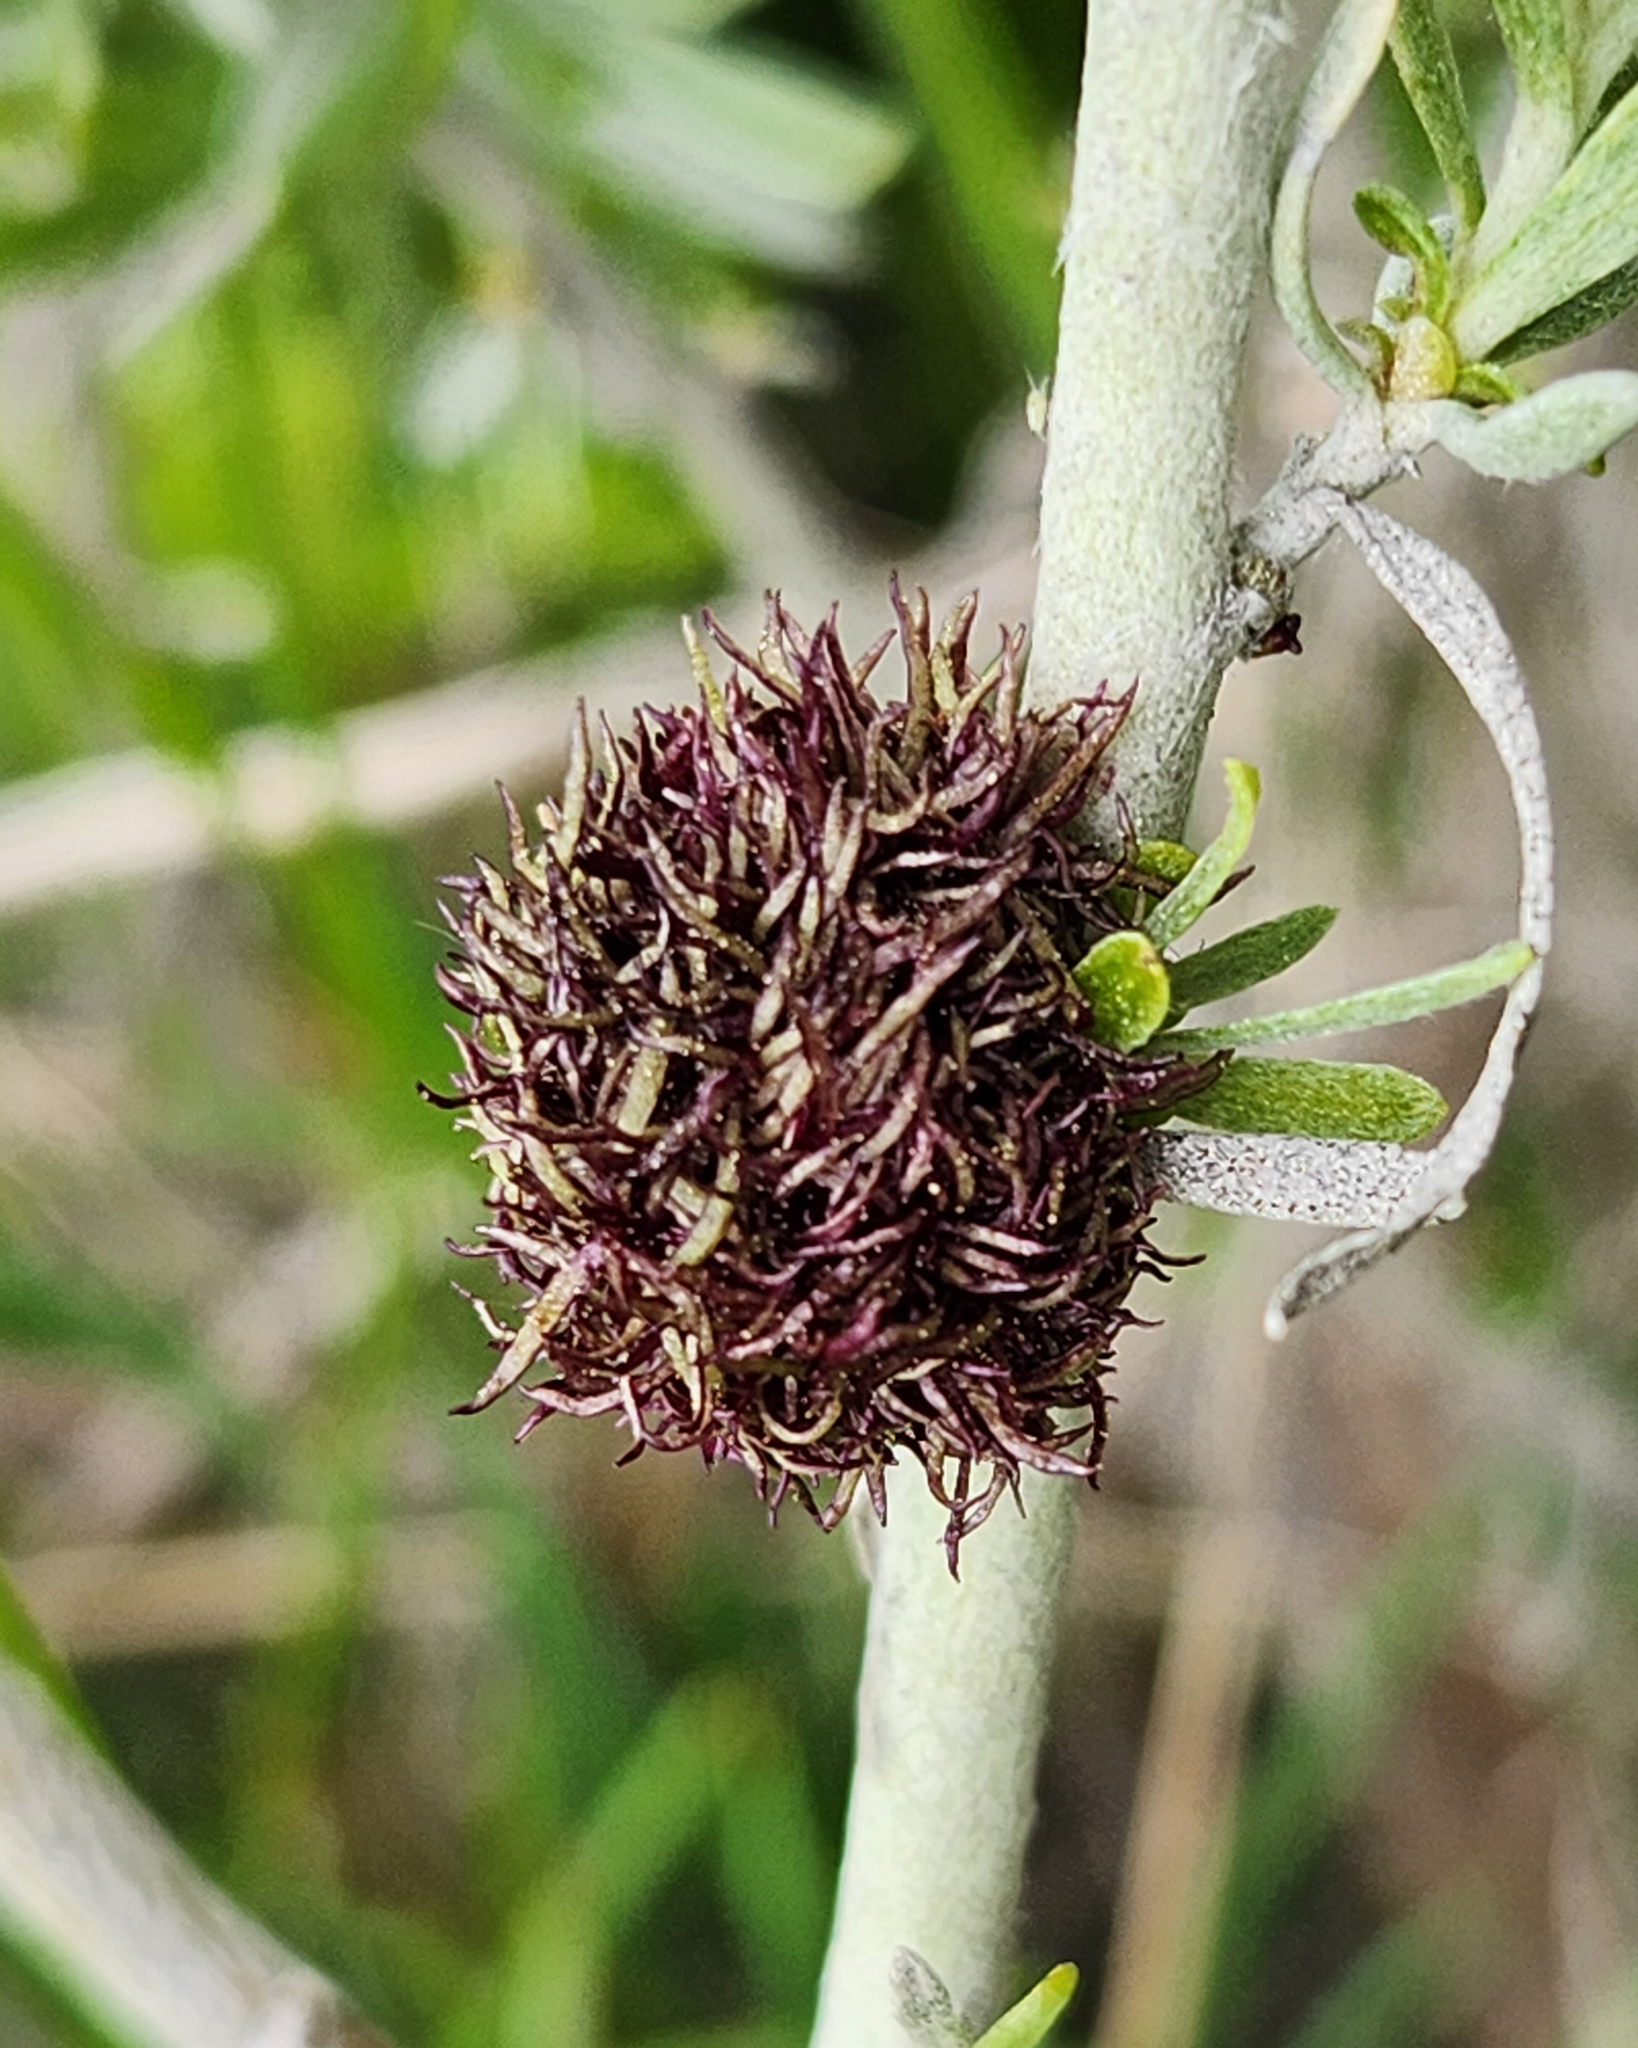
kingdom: Animalia
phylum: Arthropoda
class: Insecta
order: Diptera
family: Cecidomyiidae
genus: Rhopalomyia
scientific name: Rhopalomyia medusa
